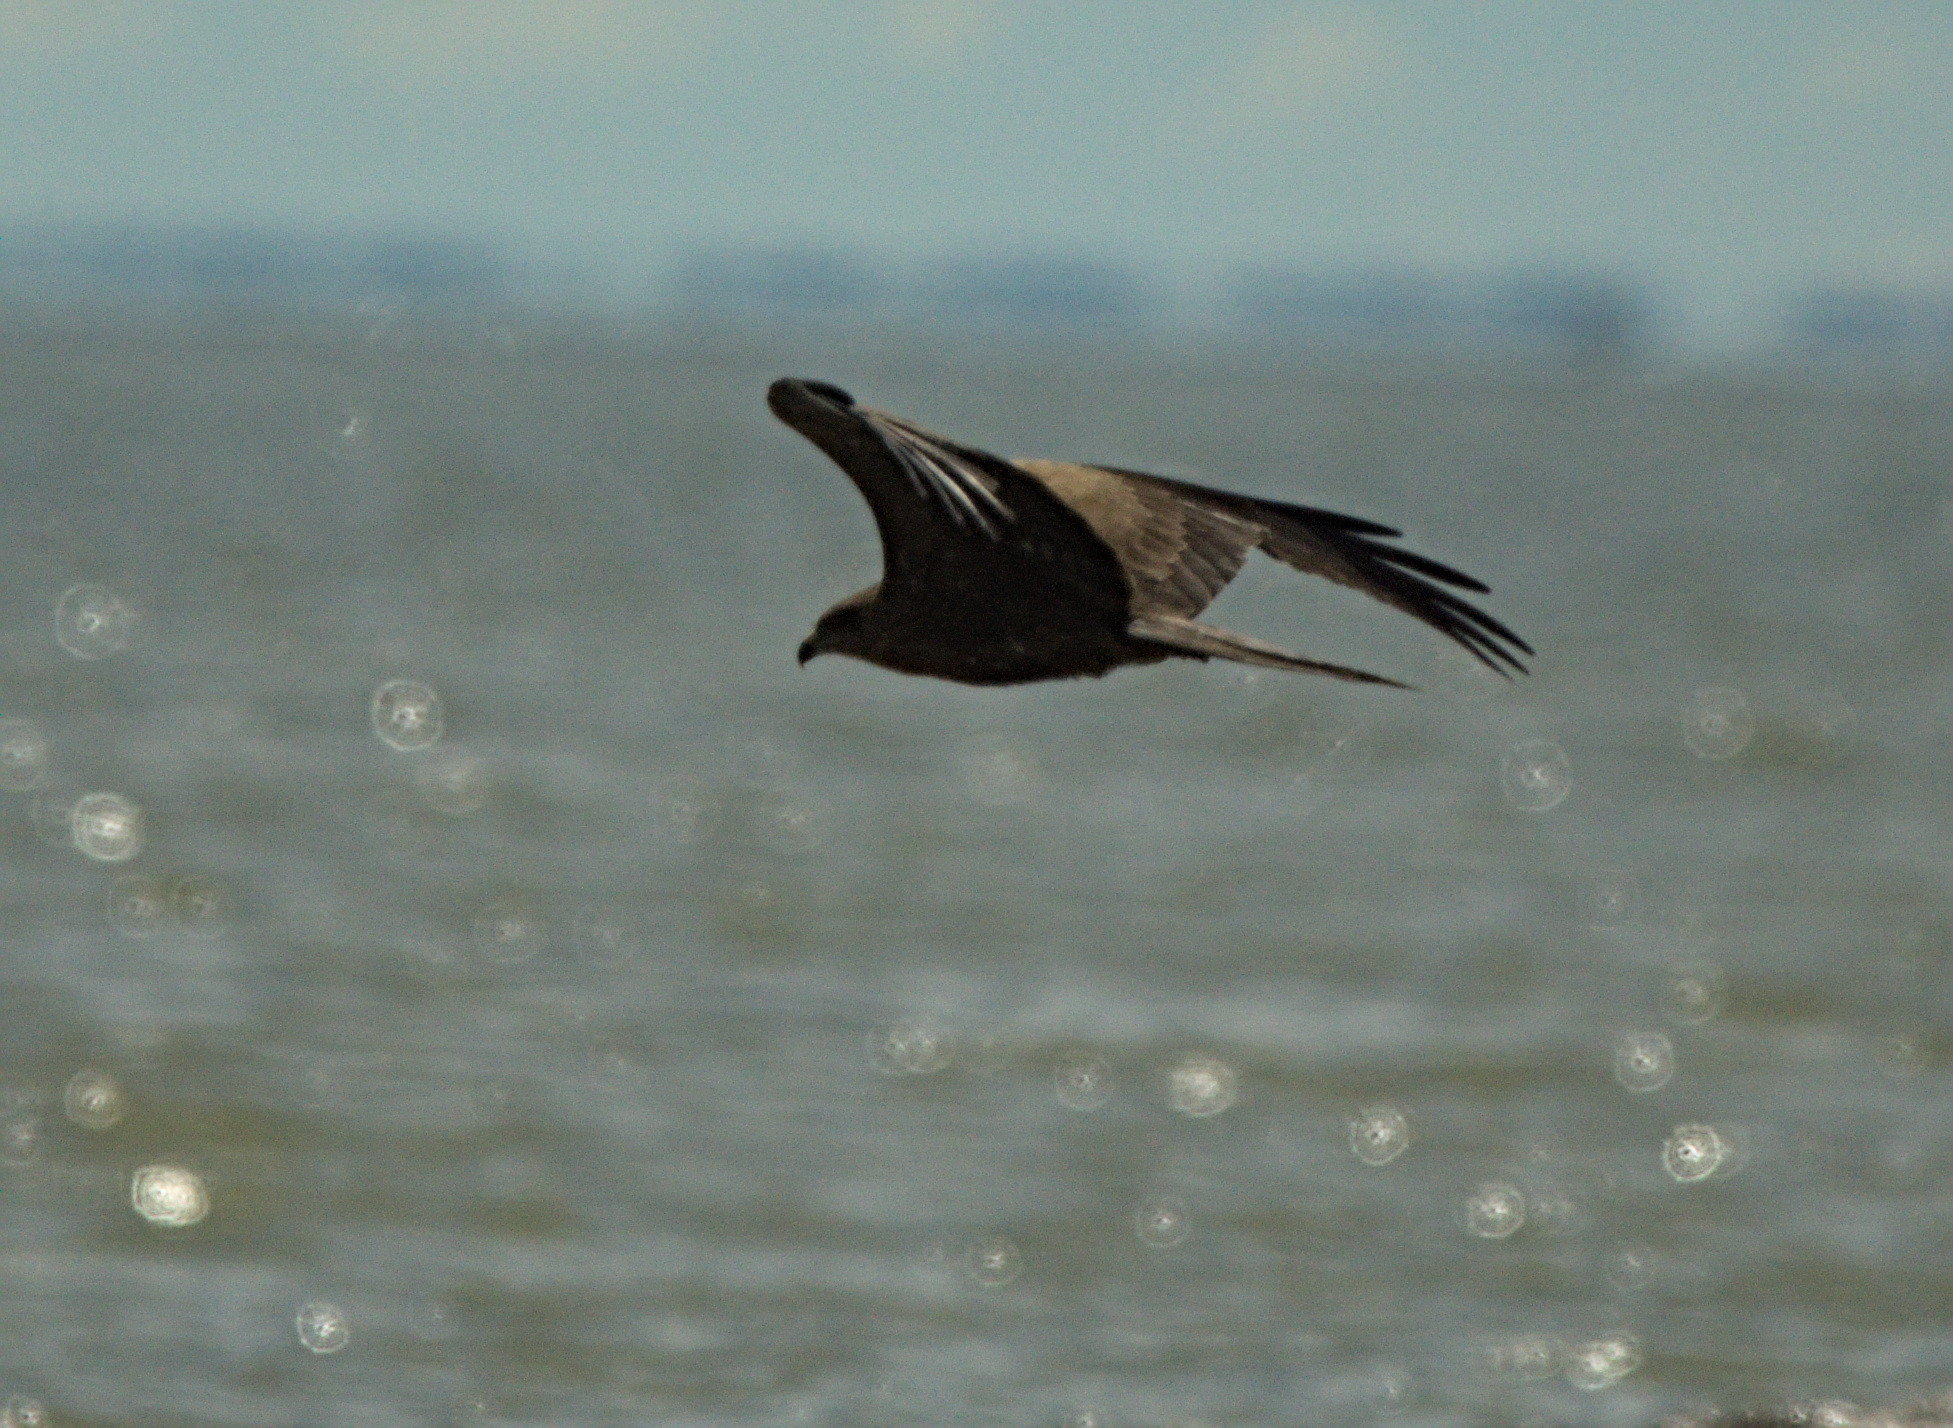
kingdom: Animalia
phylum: Chordata
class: Aves
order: Accipitriformes
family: Accipitridae
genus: Milvus
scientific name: Milvus migrans
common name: Black kite
